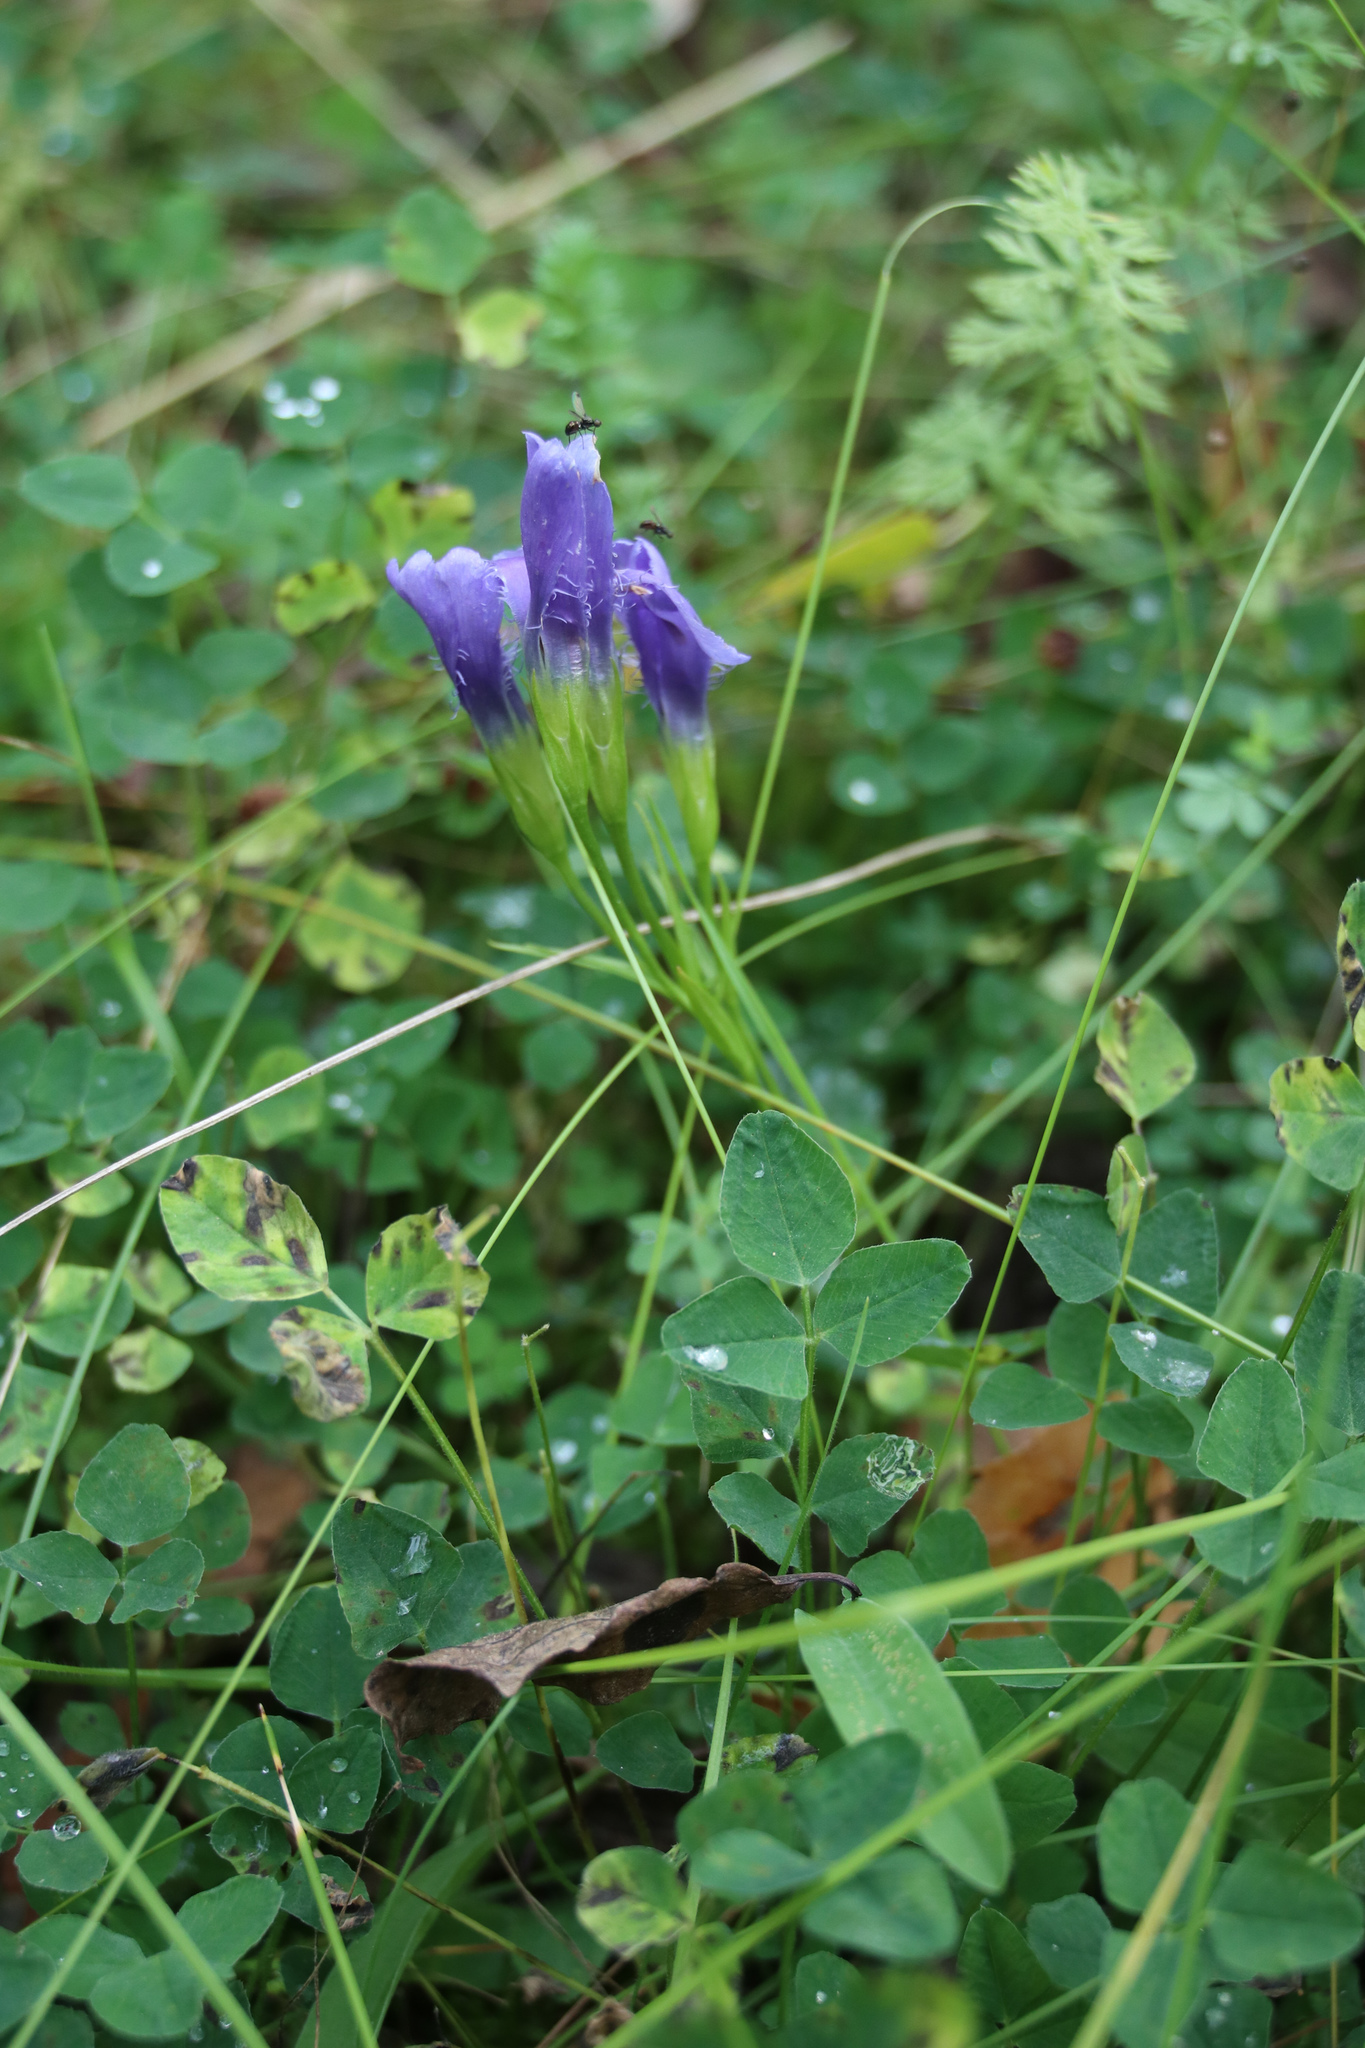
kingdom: Plantae
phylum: Tracheophyta
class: Magnoliopsida
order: Gentianales
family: Gentianaceae
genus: Gentianopsis
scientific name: Gentianopsis ciliata
